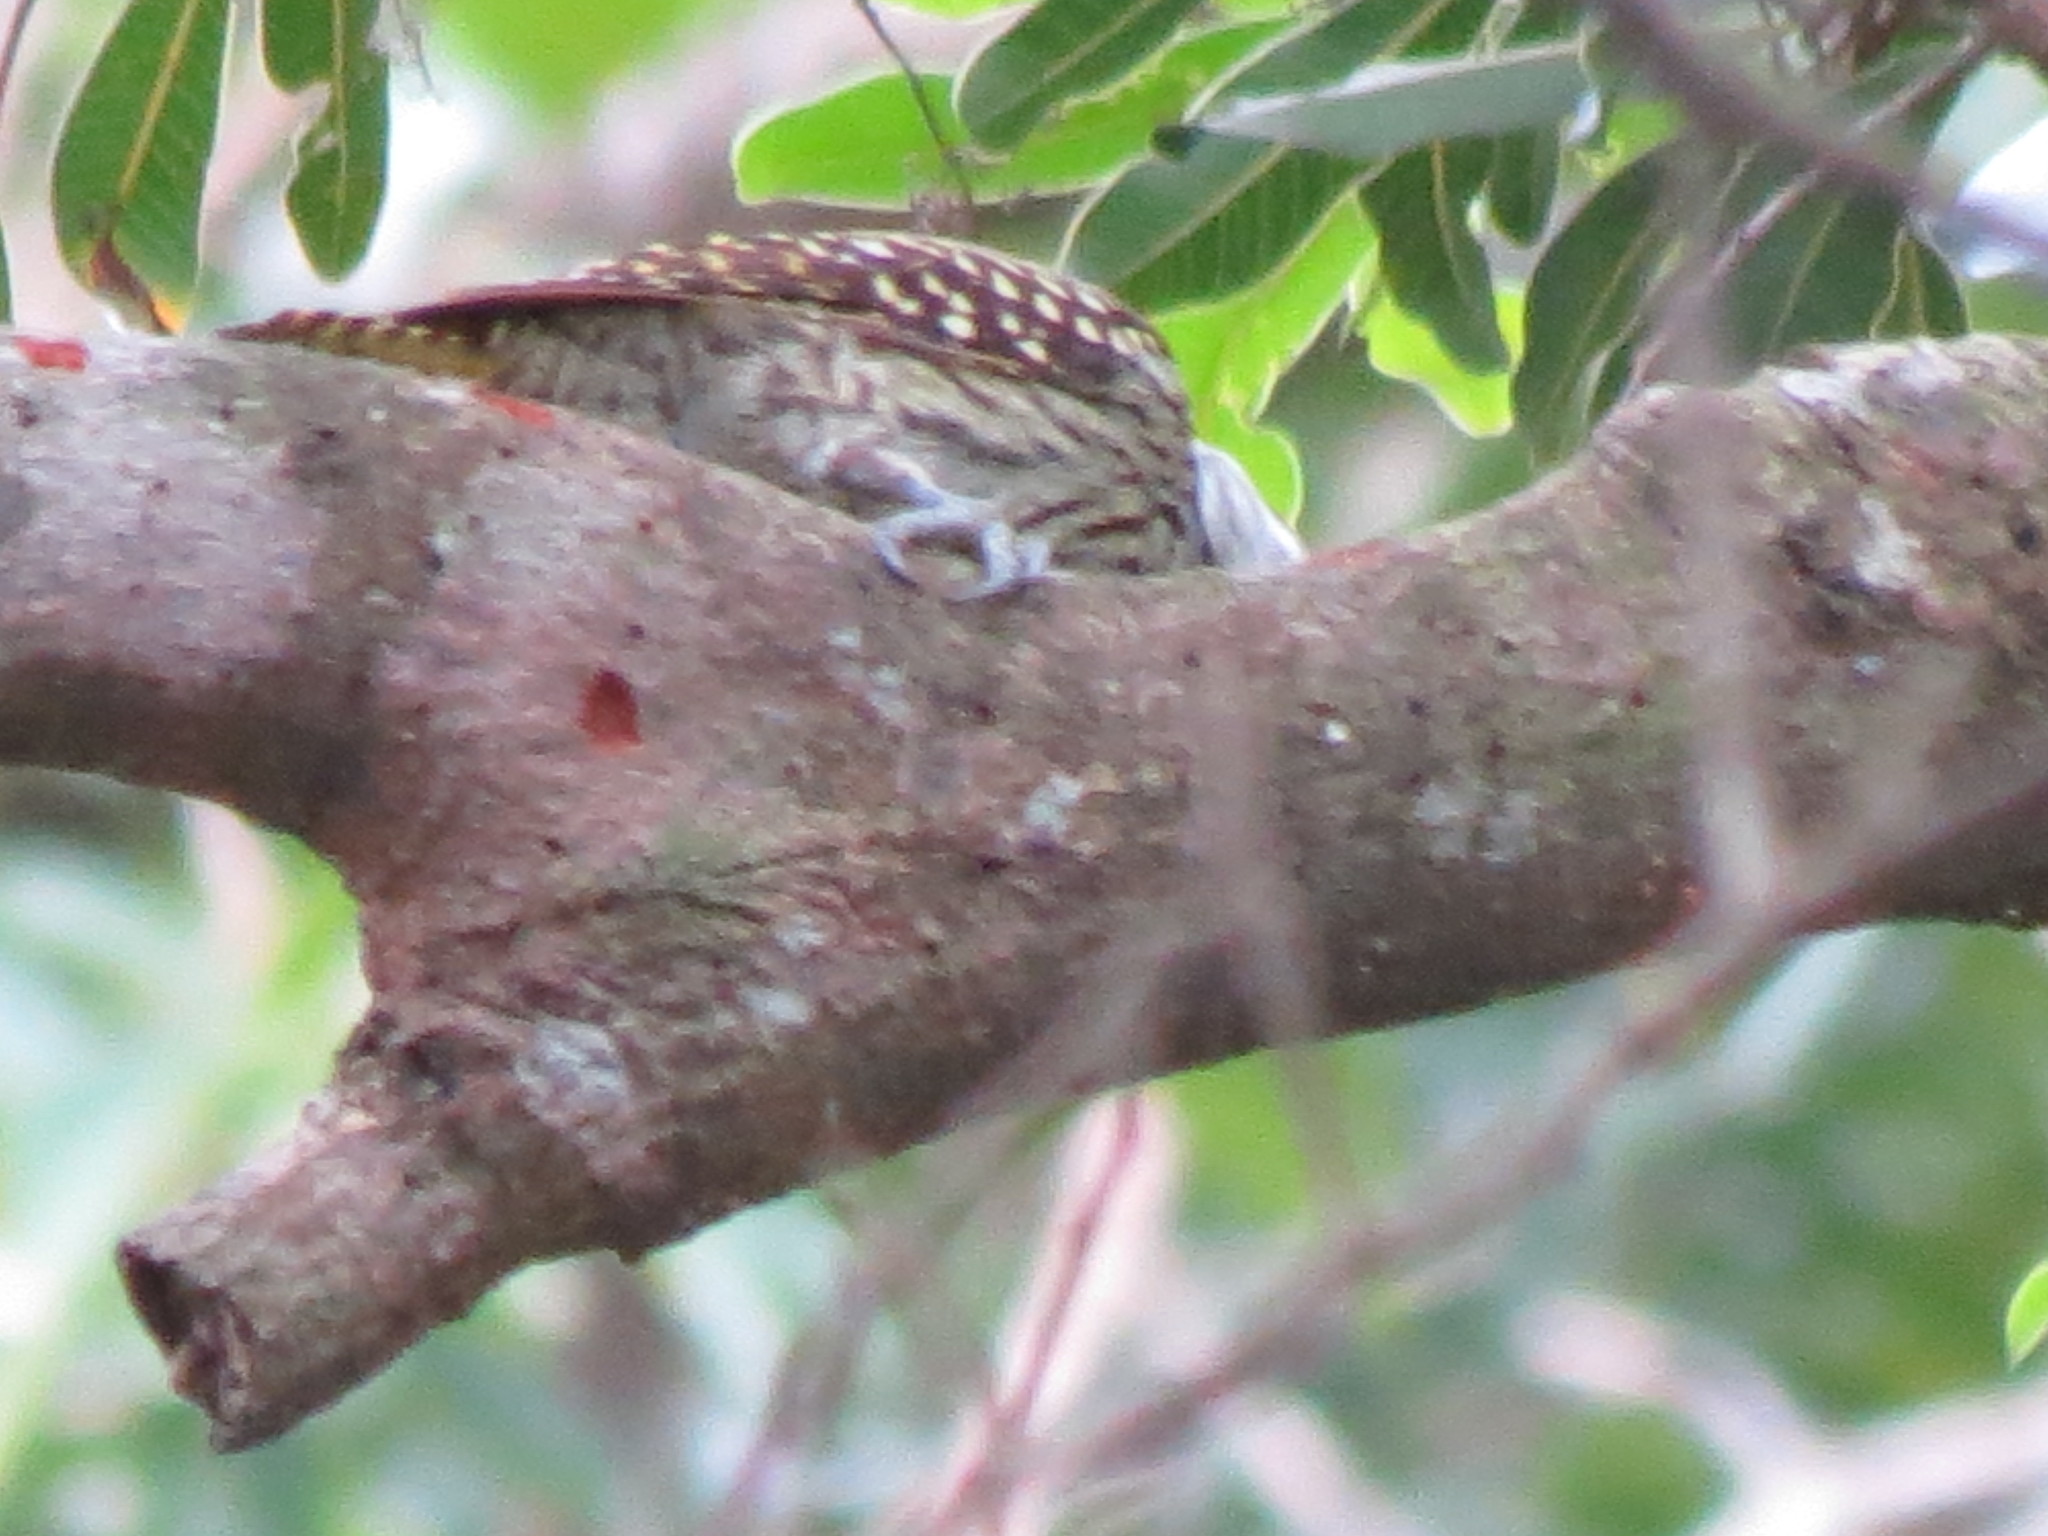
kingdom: Animalia
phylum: Chordata
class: Aves
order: Piciformes
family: Picidae
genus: Dendropicos
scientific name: Dendropicos fuscescens
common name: Cardinal woodpecker
